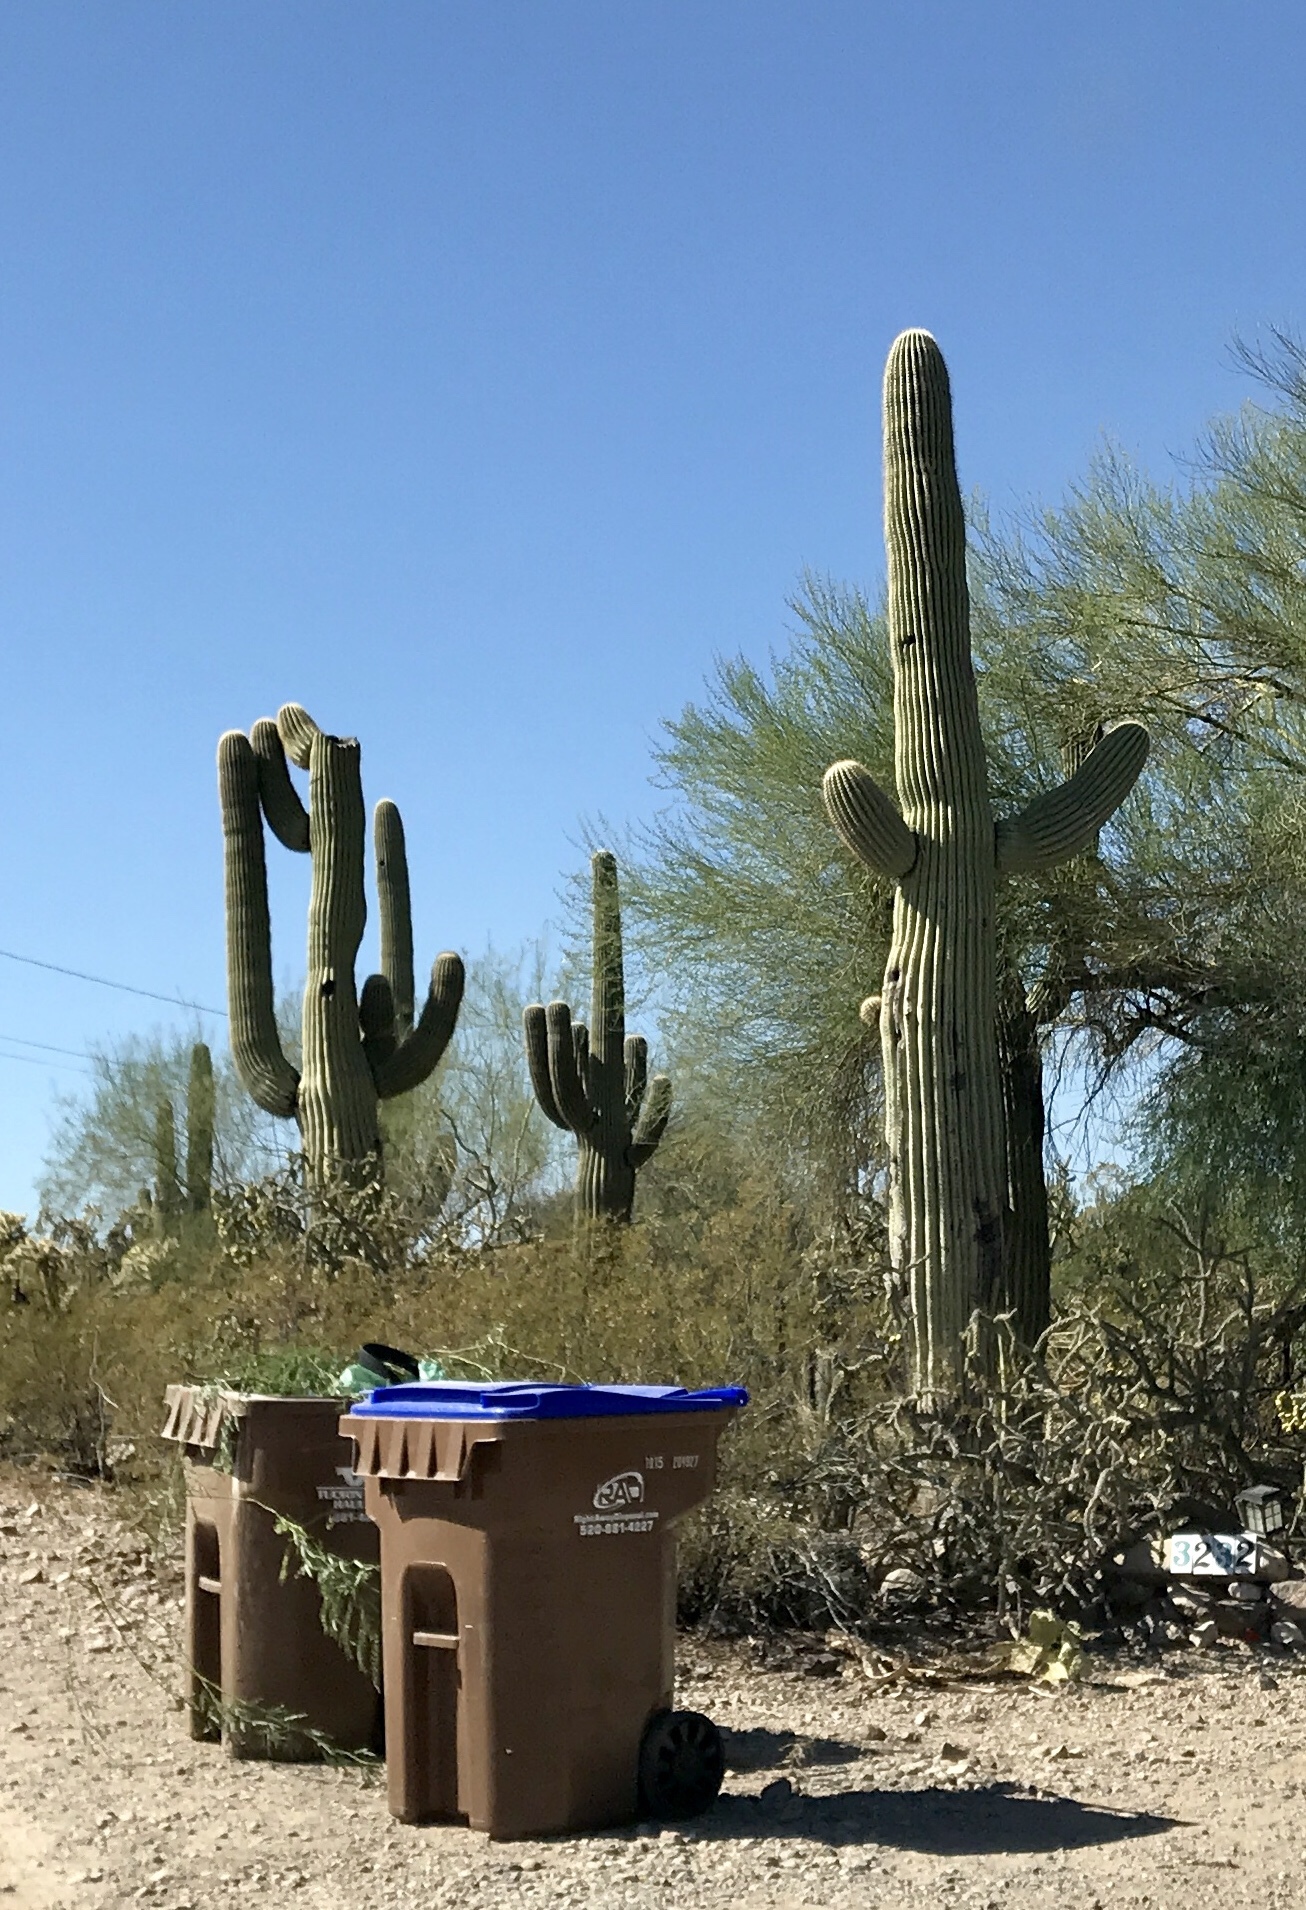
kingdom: Plantae
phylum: Tracheophyta
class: Magnoliopsida
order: Caryophyllales
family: Cactaceae
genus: Carnegiea
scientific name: Carnegiea gigantea
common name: Saguaro
